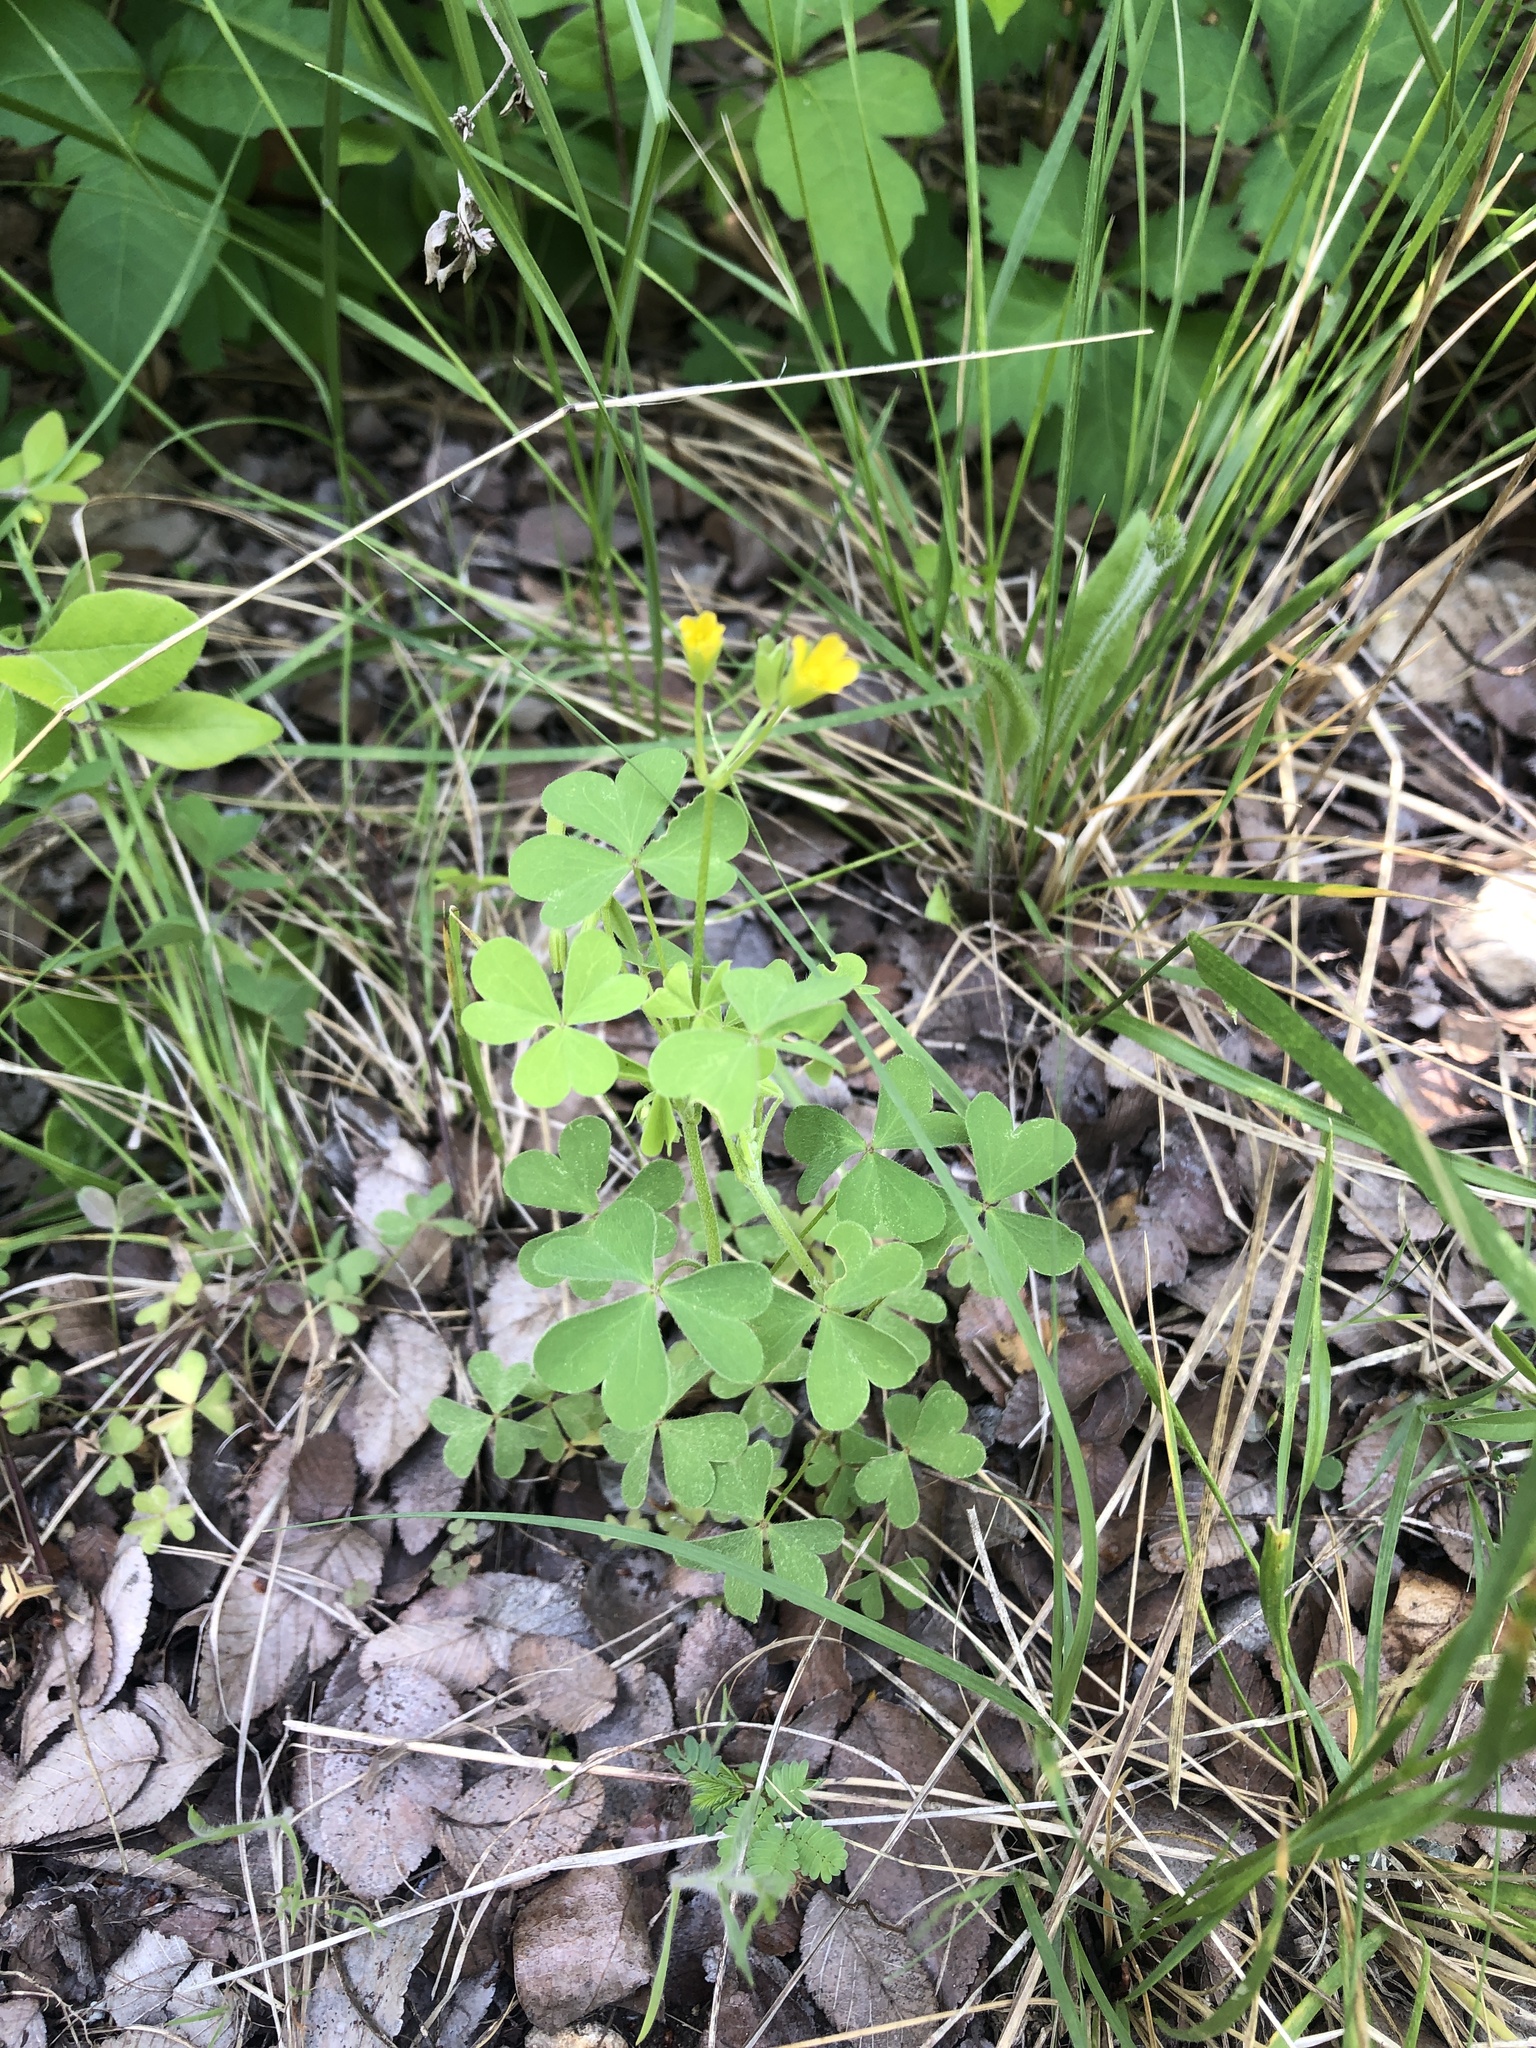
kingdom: Plantae
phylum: Tracheophyta
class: Magnoliopsida
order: Oxalidales
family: Oxalidaceae
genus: Oxalis
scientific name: Oxalis dillenii
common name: Sussex yellow-sorrel
